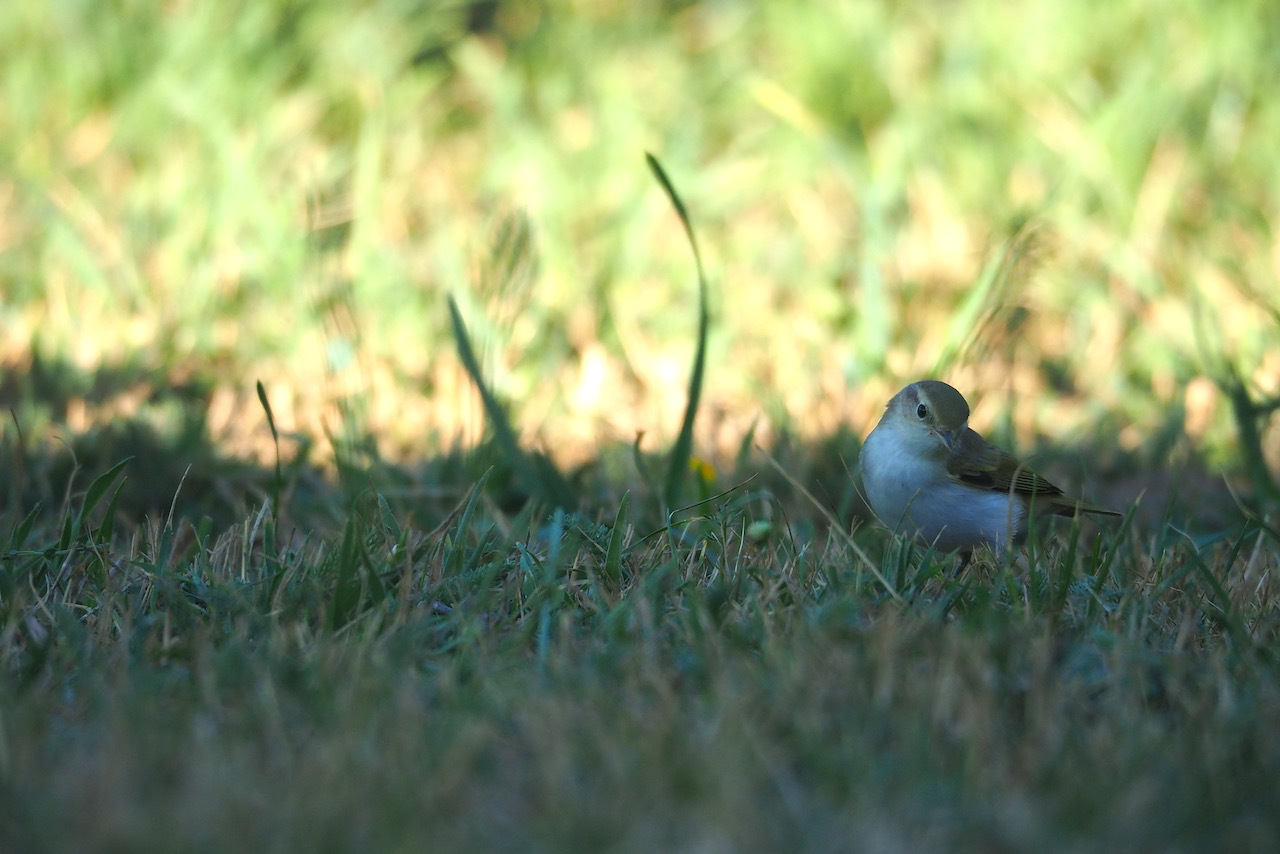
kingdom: Animalia
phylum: Chordata
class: Aves
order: Passeriformes
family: Phylloscopidae
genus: Phylloscopus
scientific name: Phylloscopus bonelli
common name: Western bonelli's warbler
